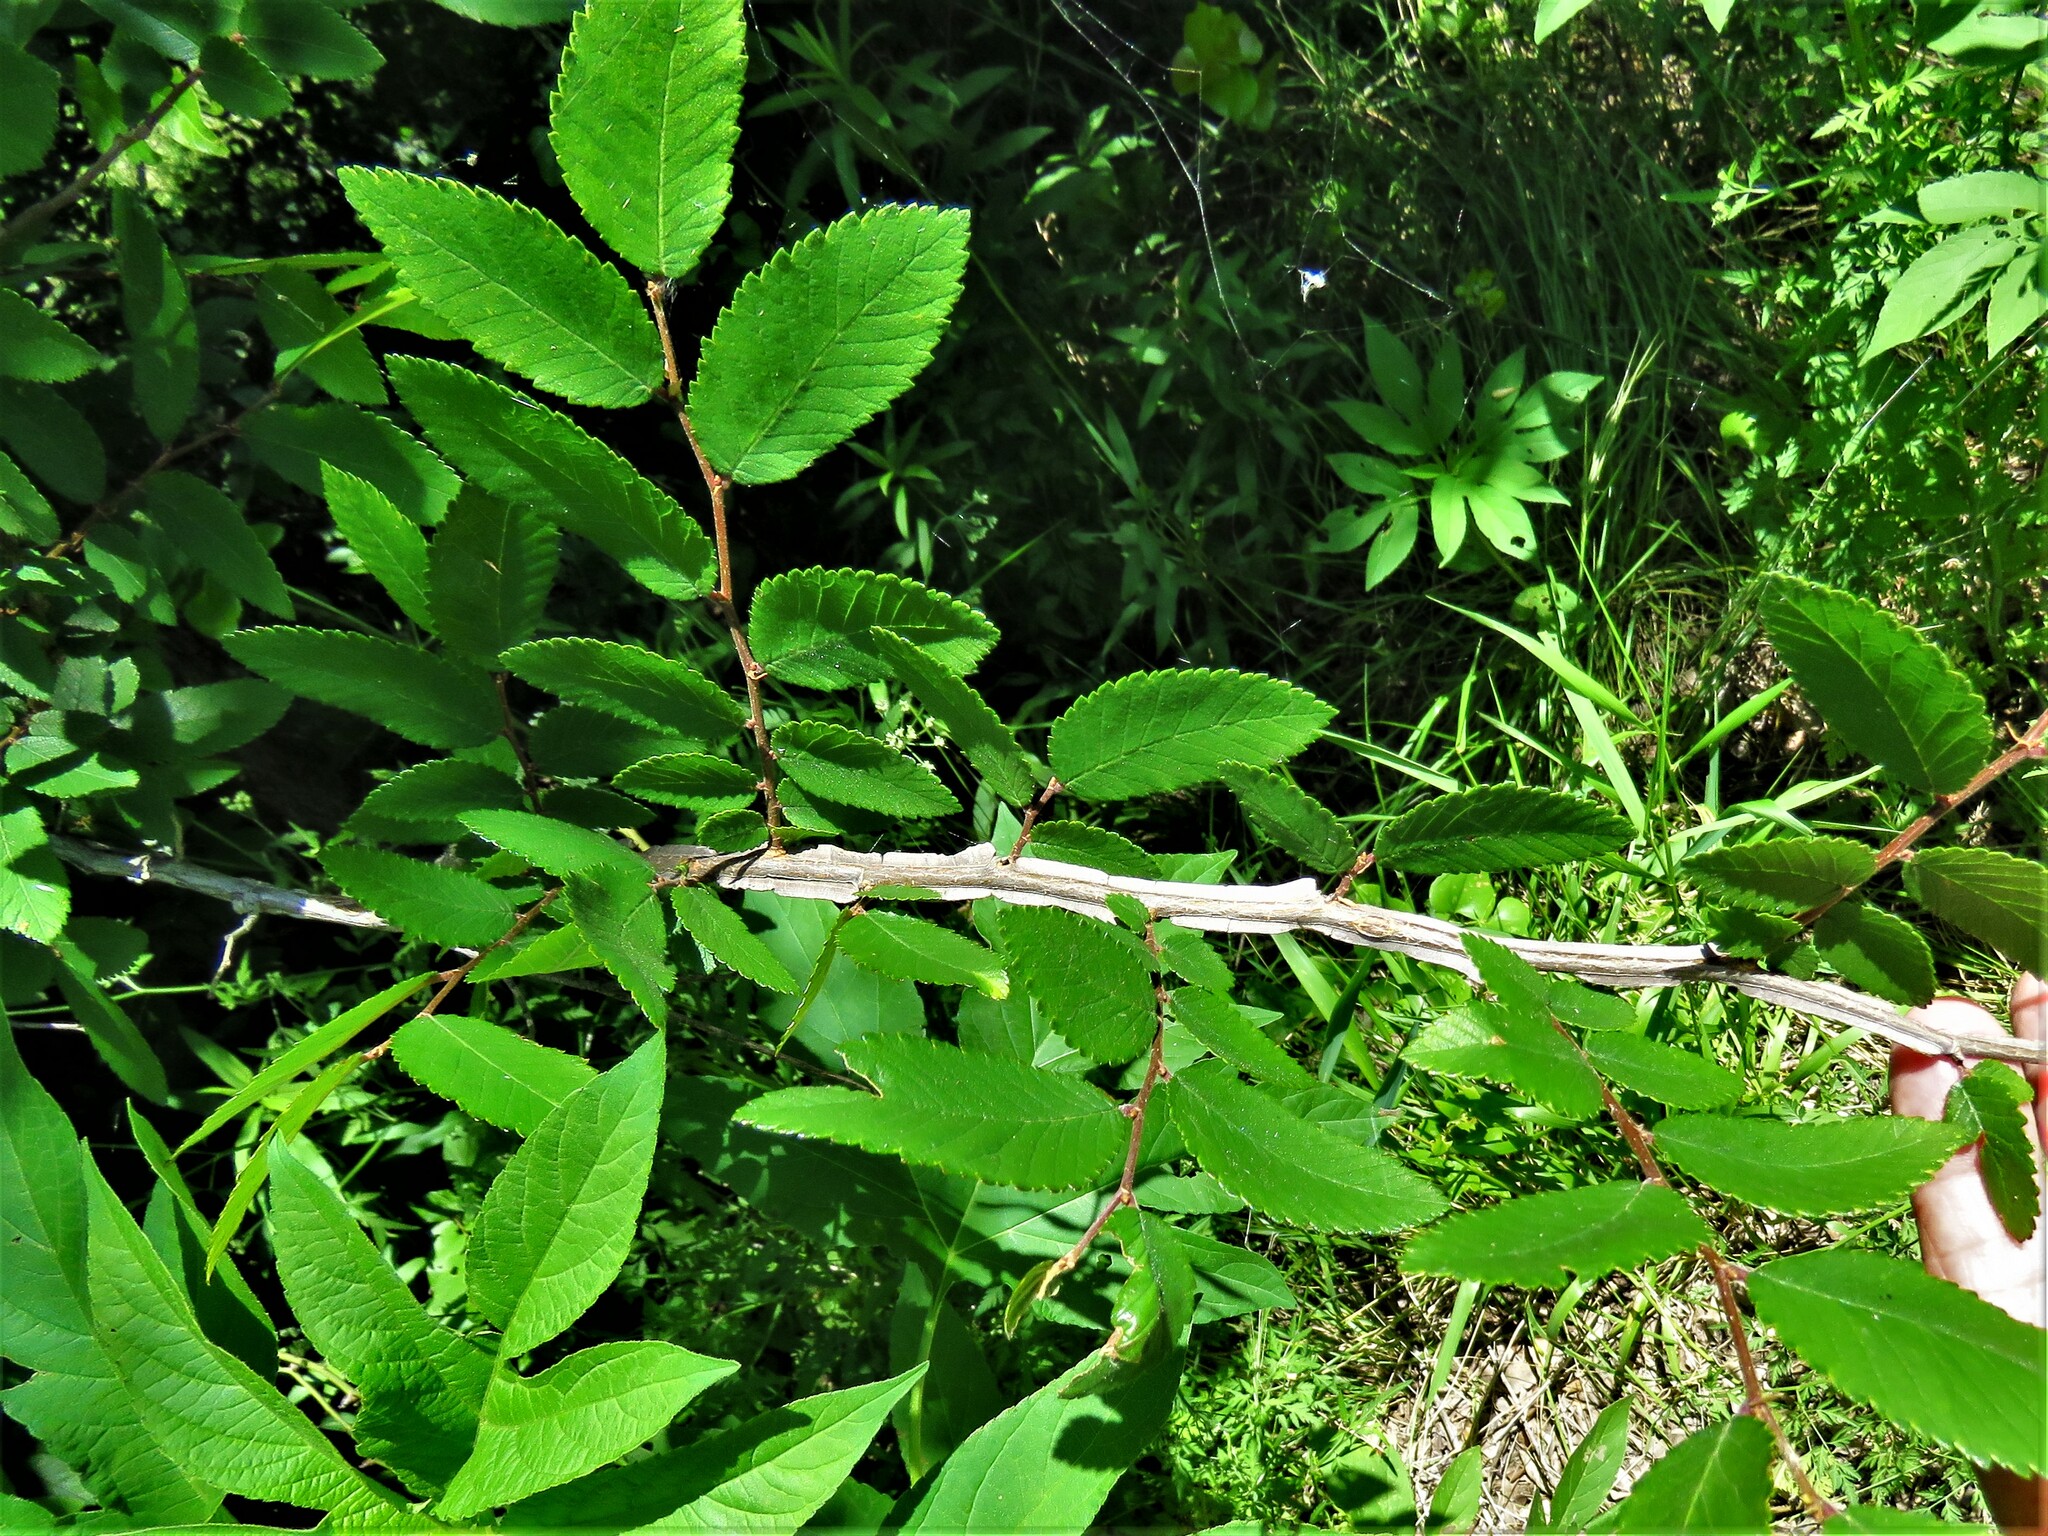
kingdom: Plantae
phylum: Tracheophyta
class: Magnoliopsida
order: Rosales
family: Ulmaceae
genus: Ulmus
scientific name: Ulmus alata
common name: Winged elm
